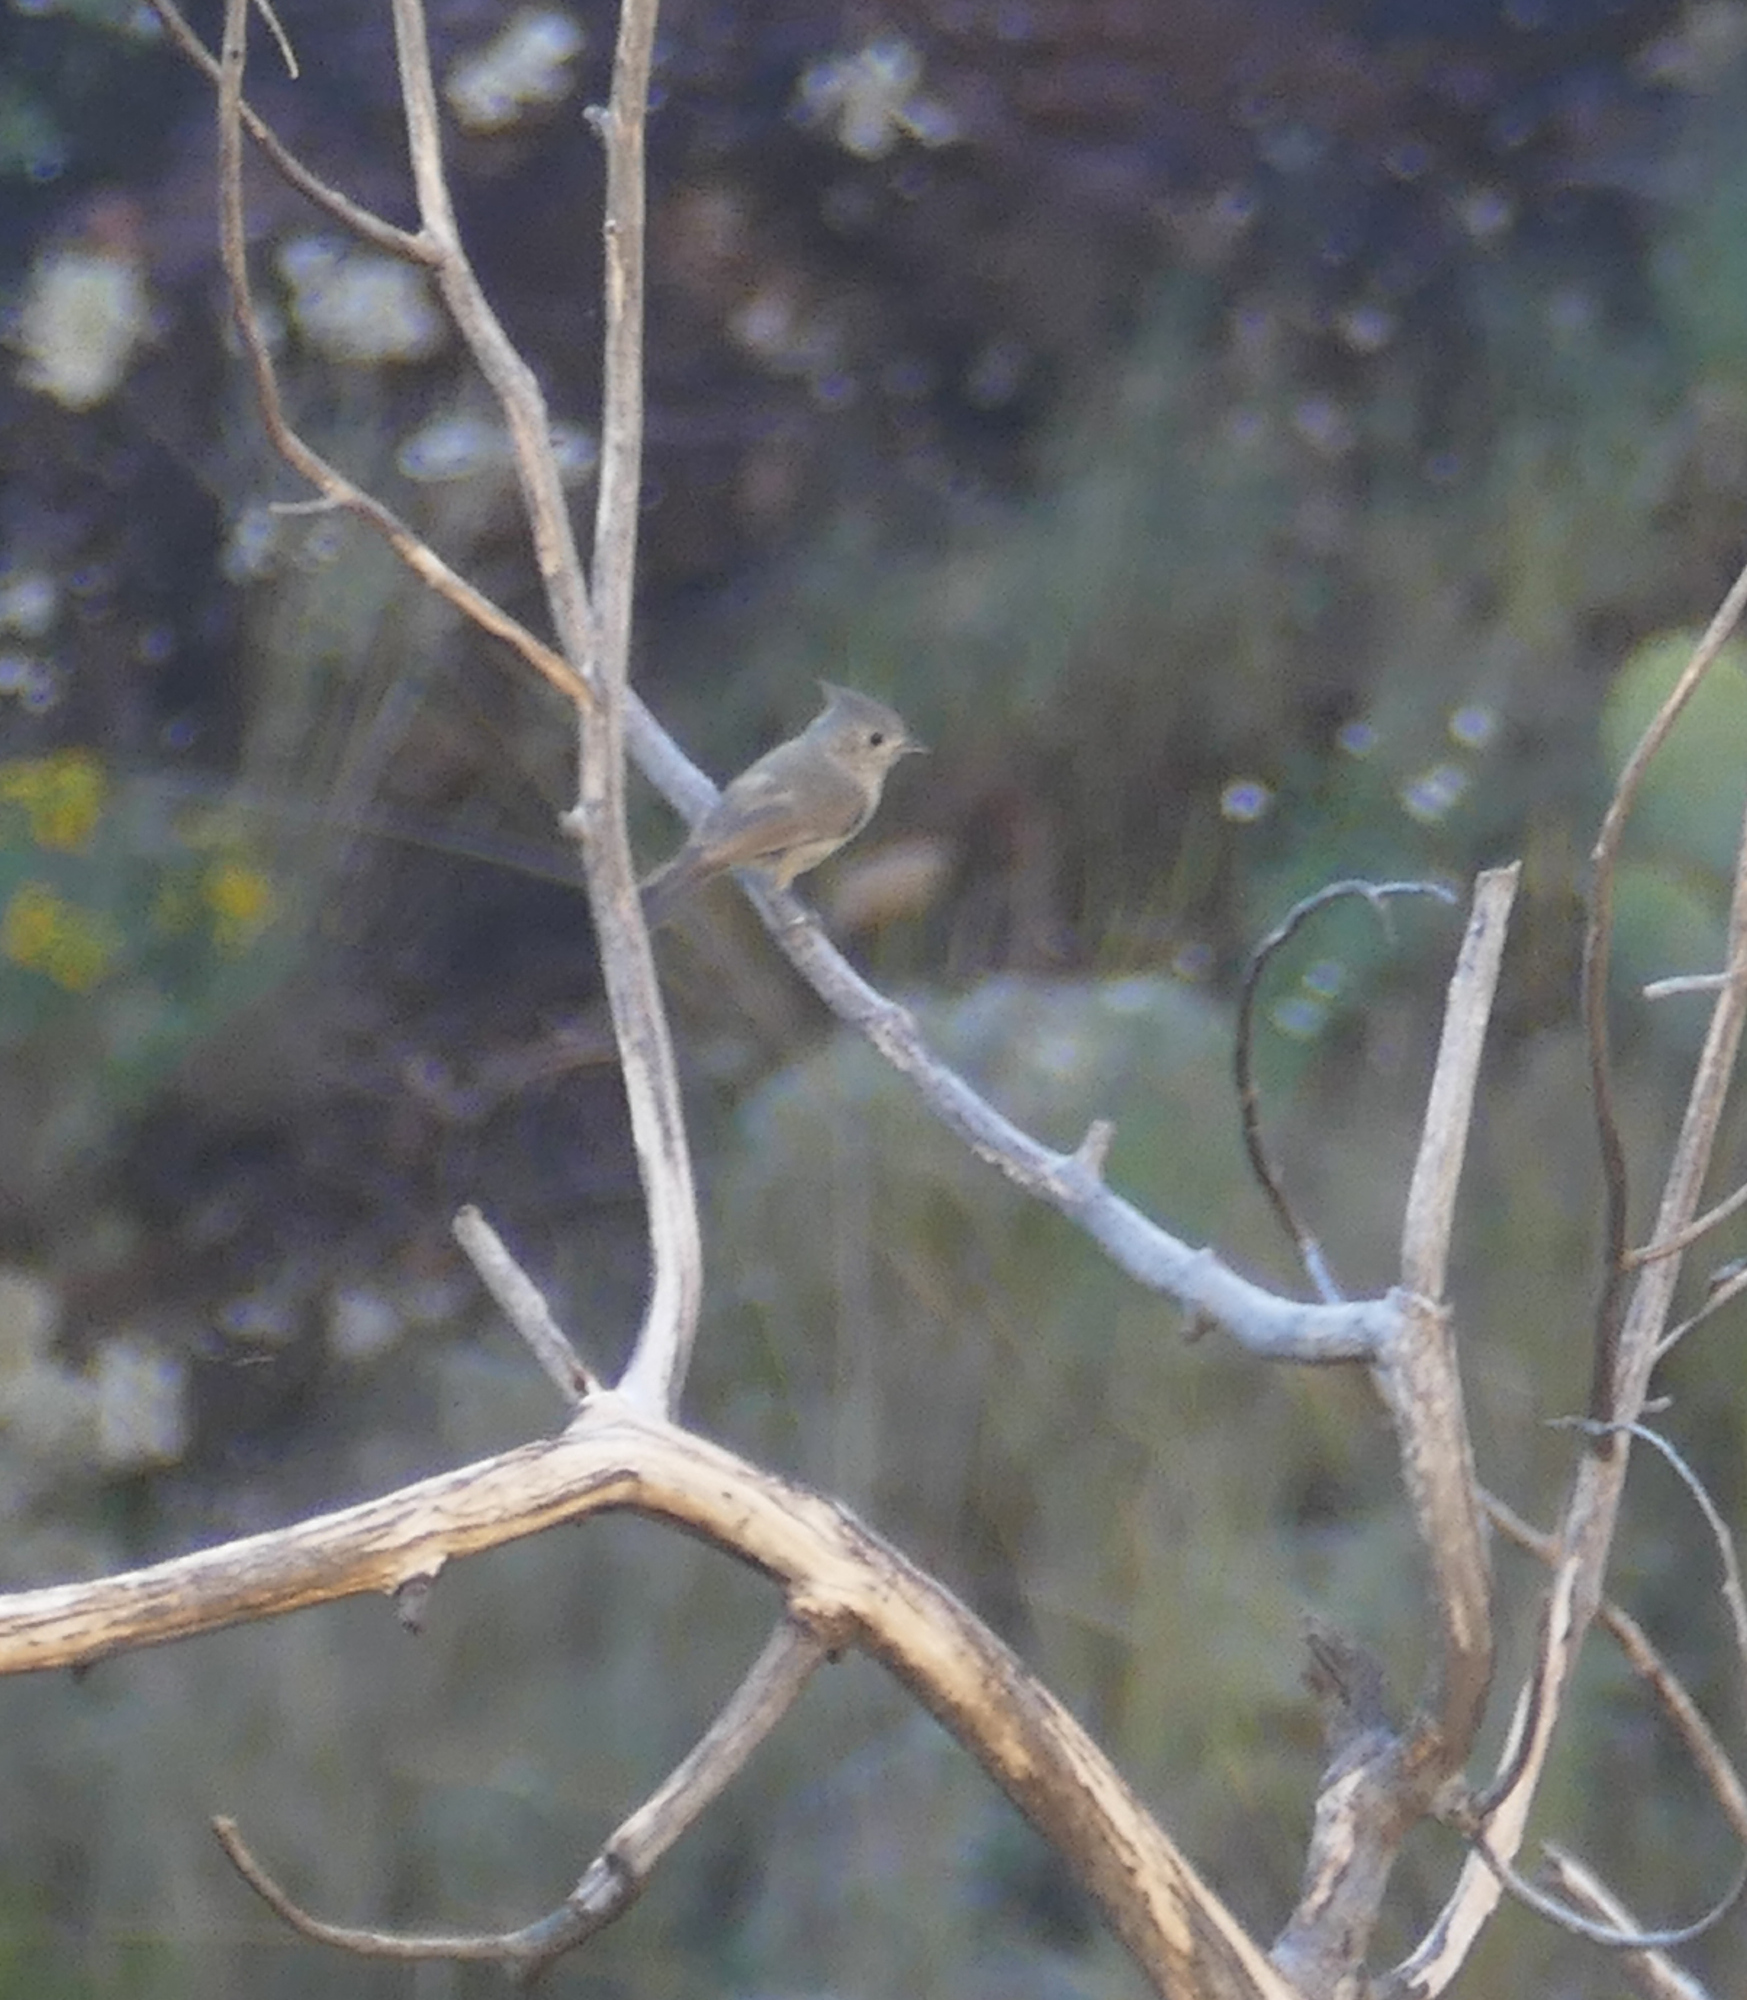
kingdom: Animalia
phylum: Chordata
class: Aves
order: Passeriformes
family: Paridae
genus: Baeolophus
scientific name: Baeolophus ridgwayi
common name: Juniper titmouse
